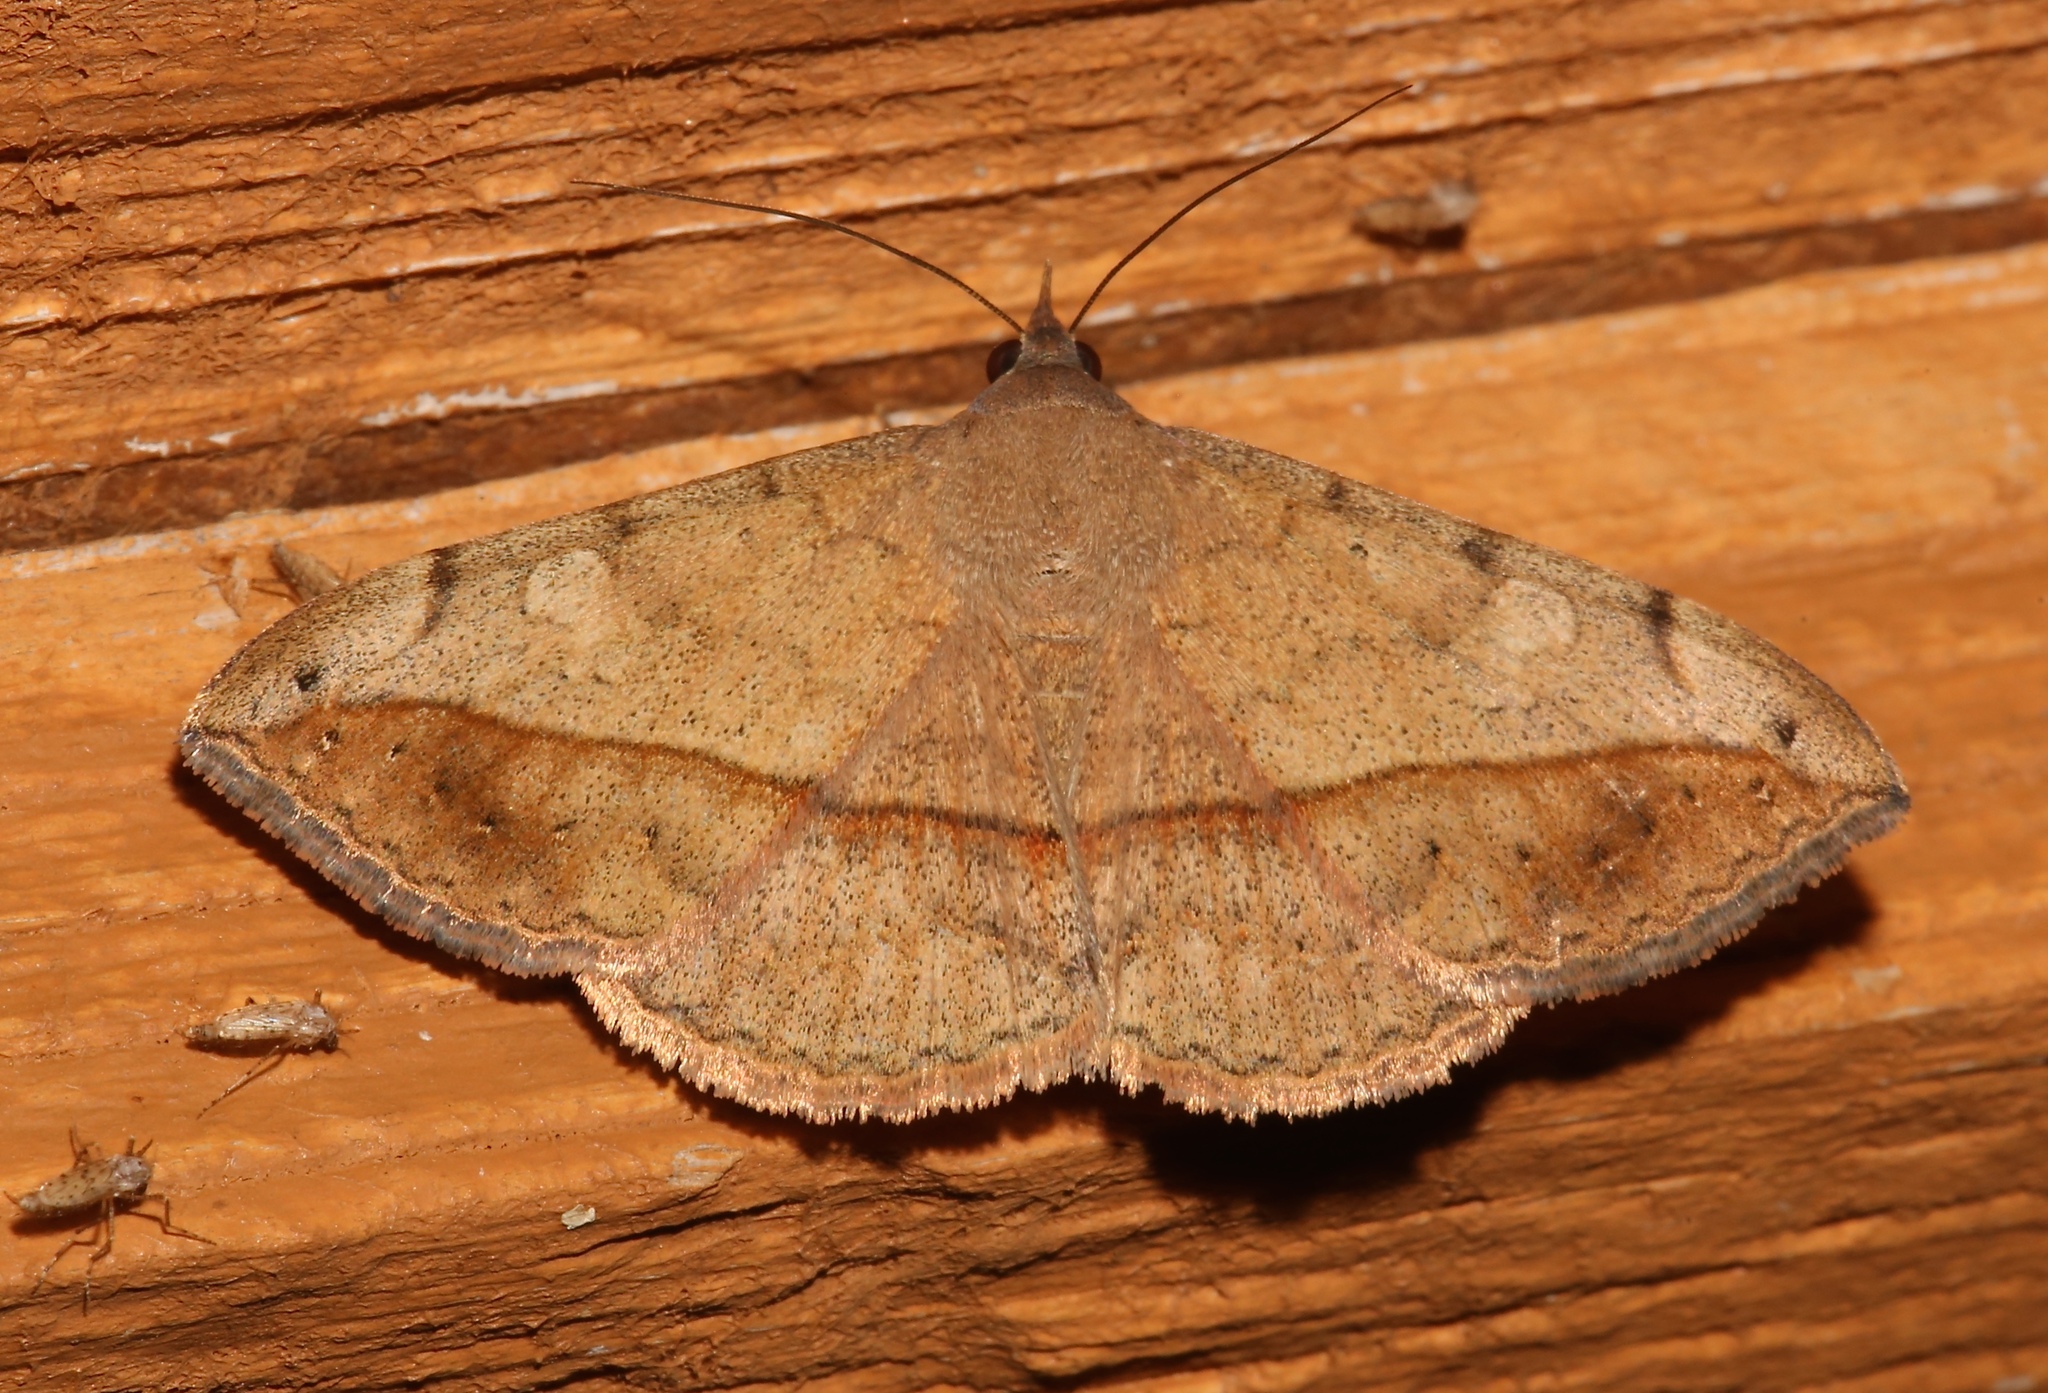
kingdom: Animalia
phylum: Arthropoda
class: Insecta
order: Lepidoptera
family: Erebidae
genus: Anticarsia
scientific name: Anticarsia gemmatalis
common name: Cutworm moth
